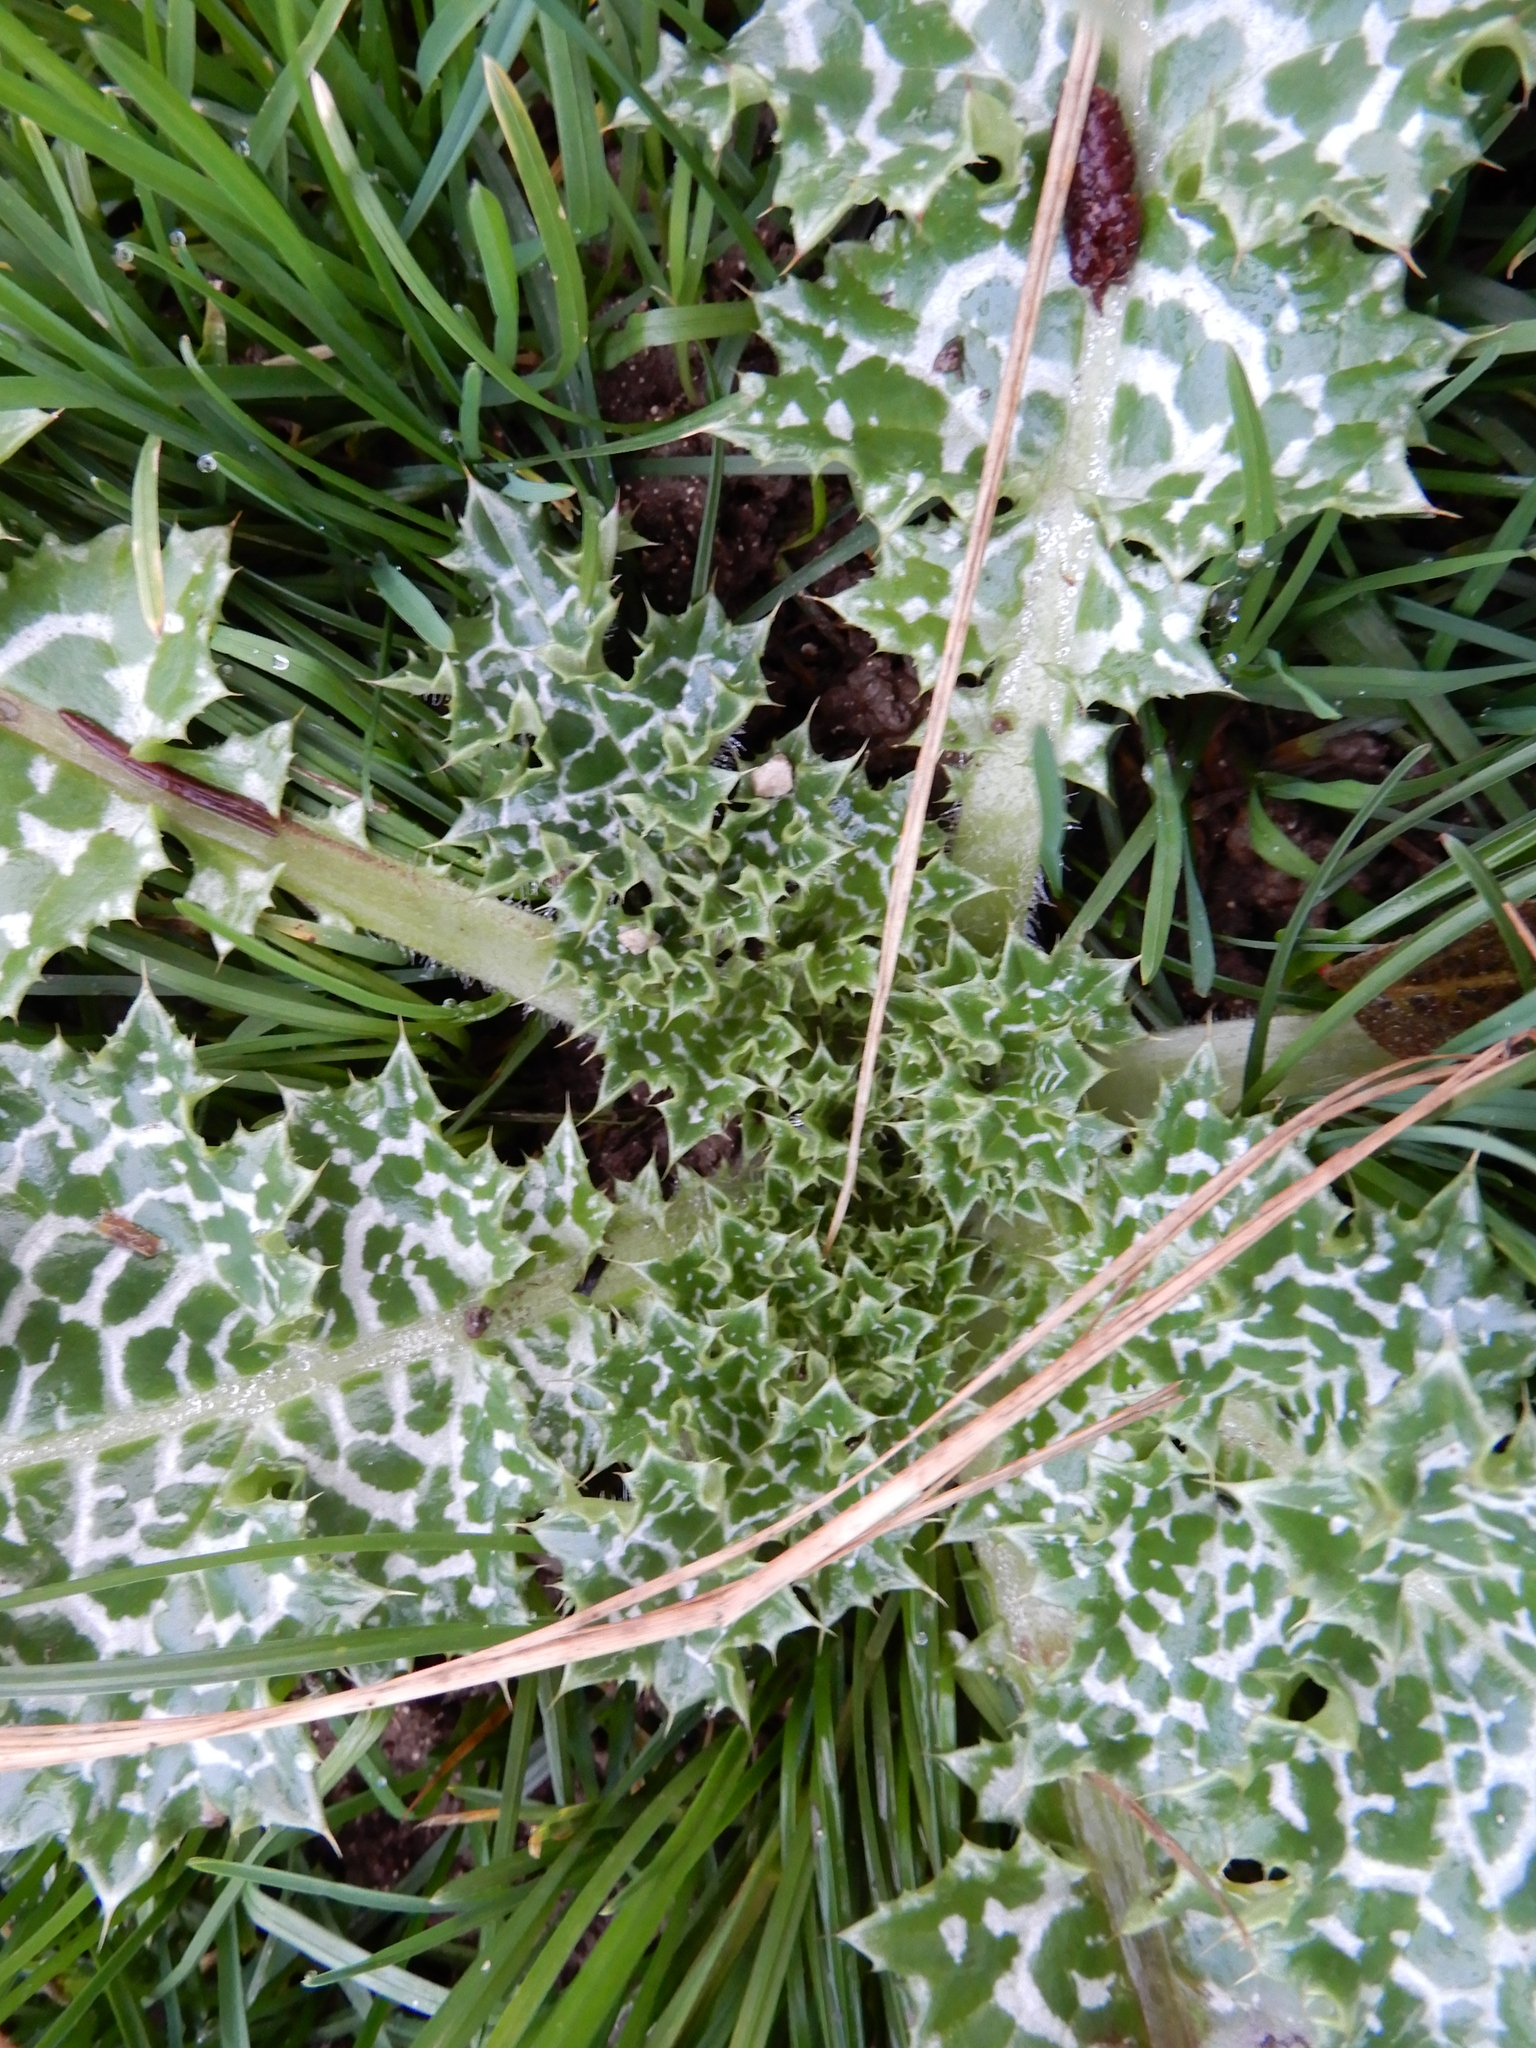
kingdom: Plantae
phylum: Tracheophyta
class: Magnoliopsida
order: Asterales
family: Asteraceae
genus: Silybum
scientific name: Silybum marianum
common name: Milk thistle
